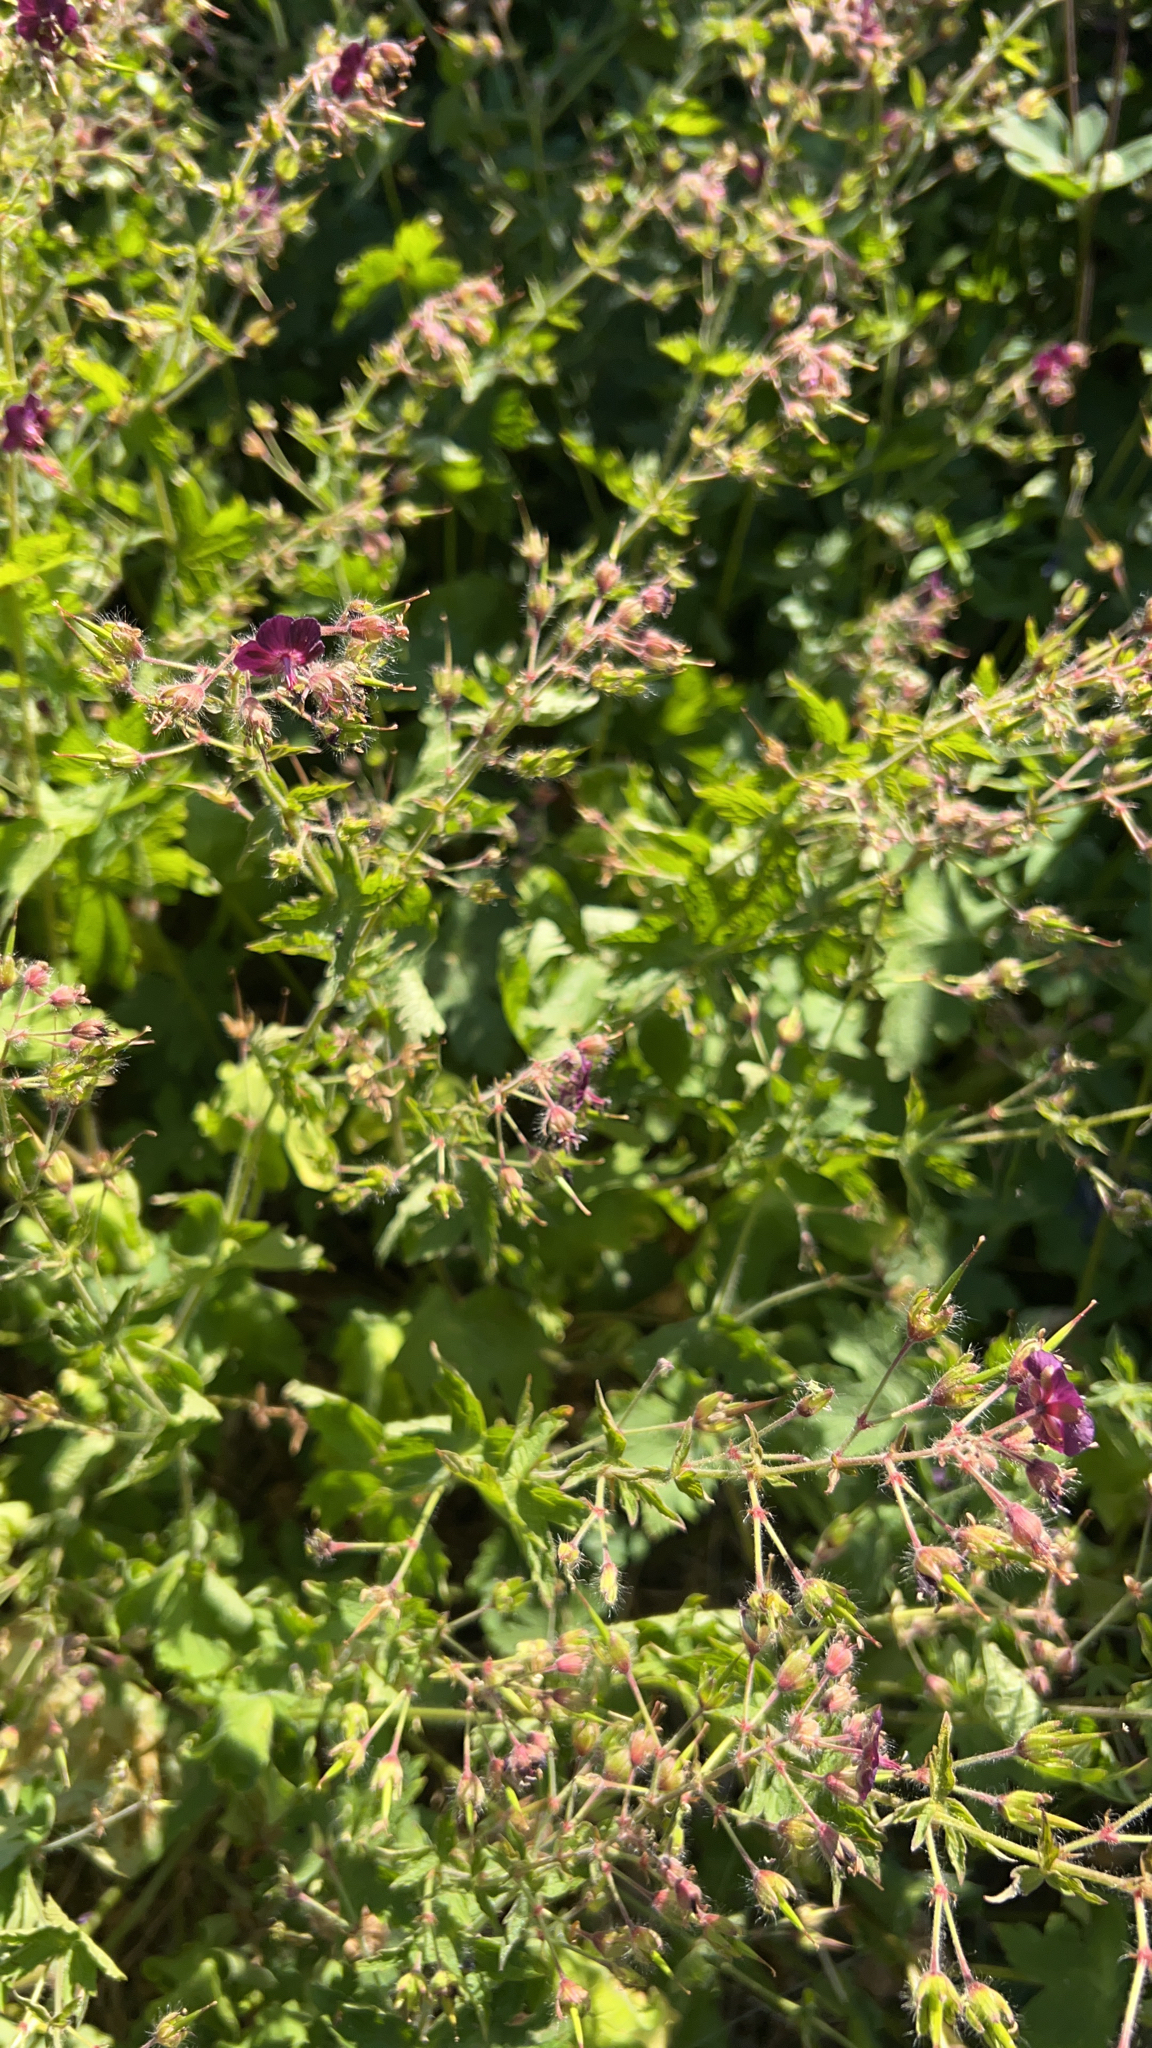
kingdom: Plantae
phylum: Tracheophyta
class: Magnoliopsida
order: Geraniales
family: Geraniaceae
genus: Geranium
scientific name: Geranium phaeum
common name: Dusky crane's-bill
